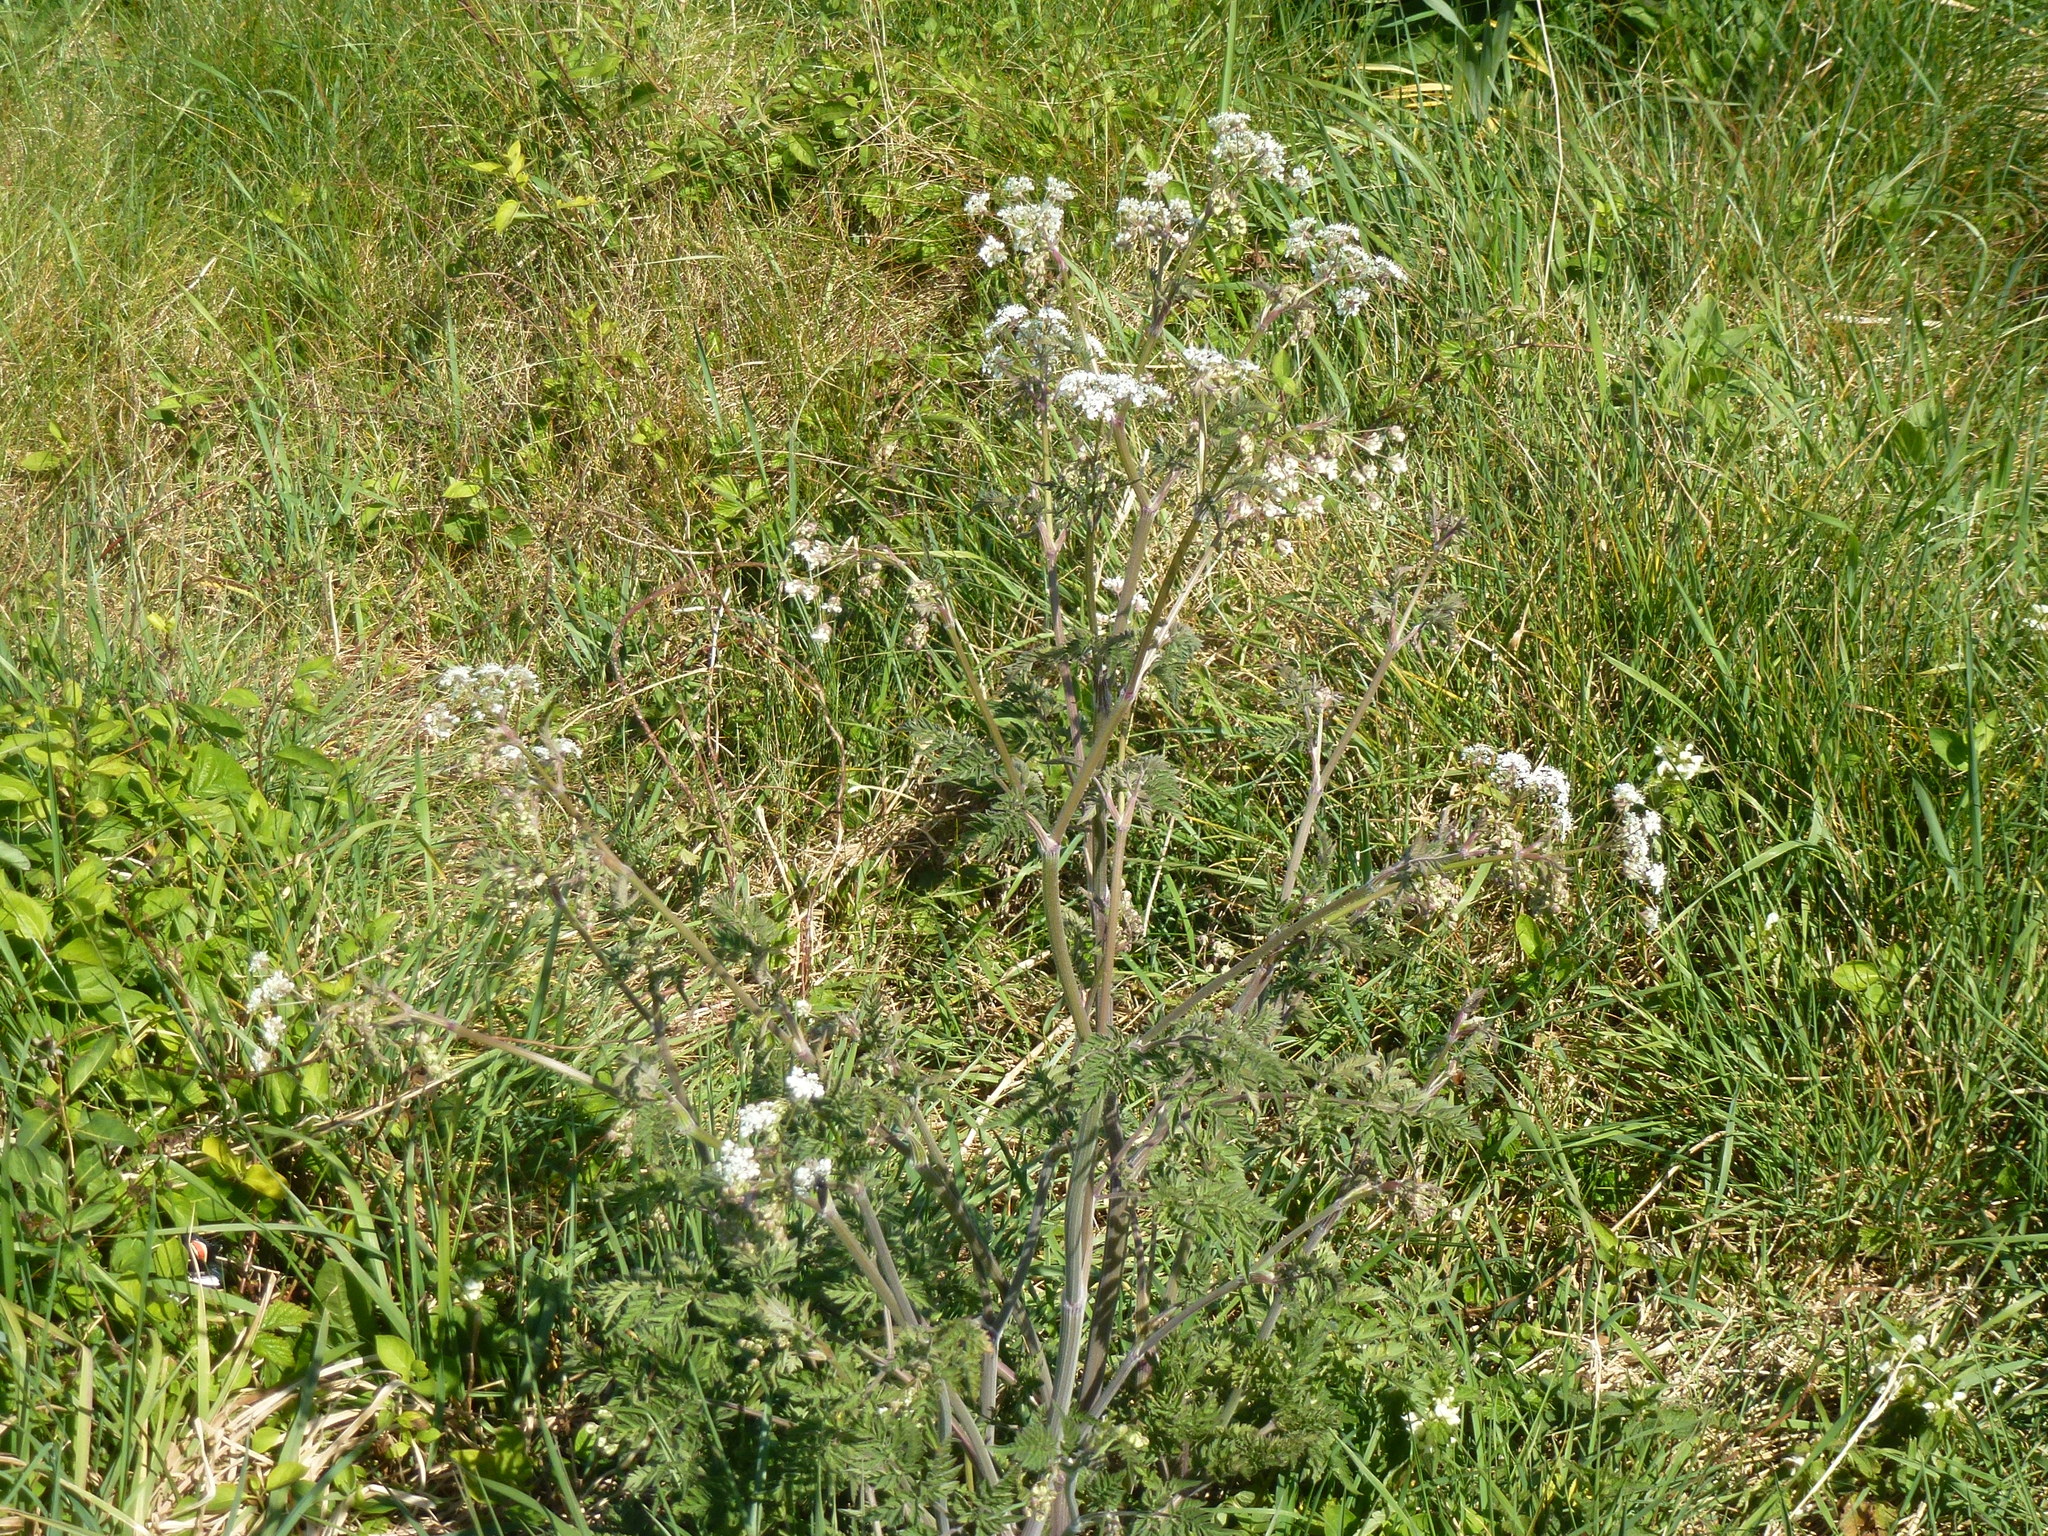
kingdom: Plantae
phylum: Tracheophyta
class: Magnoliopsida
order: Apiales
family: Apiaceae
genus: Anthriscus
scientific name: Anthriscus sylvestris
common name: Cow parsley
